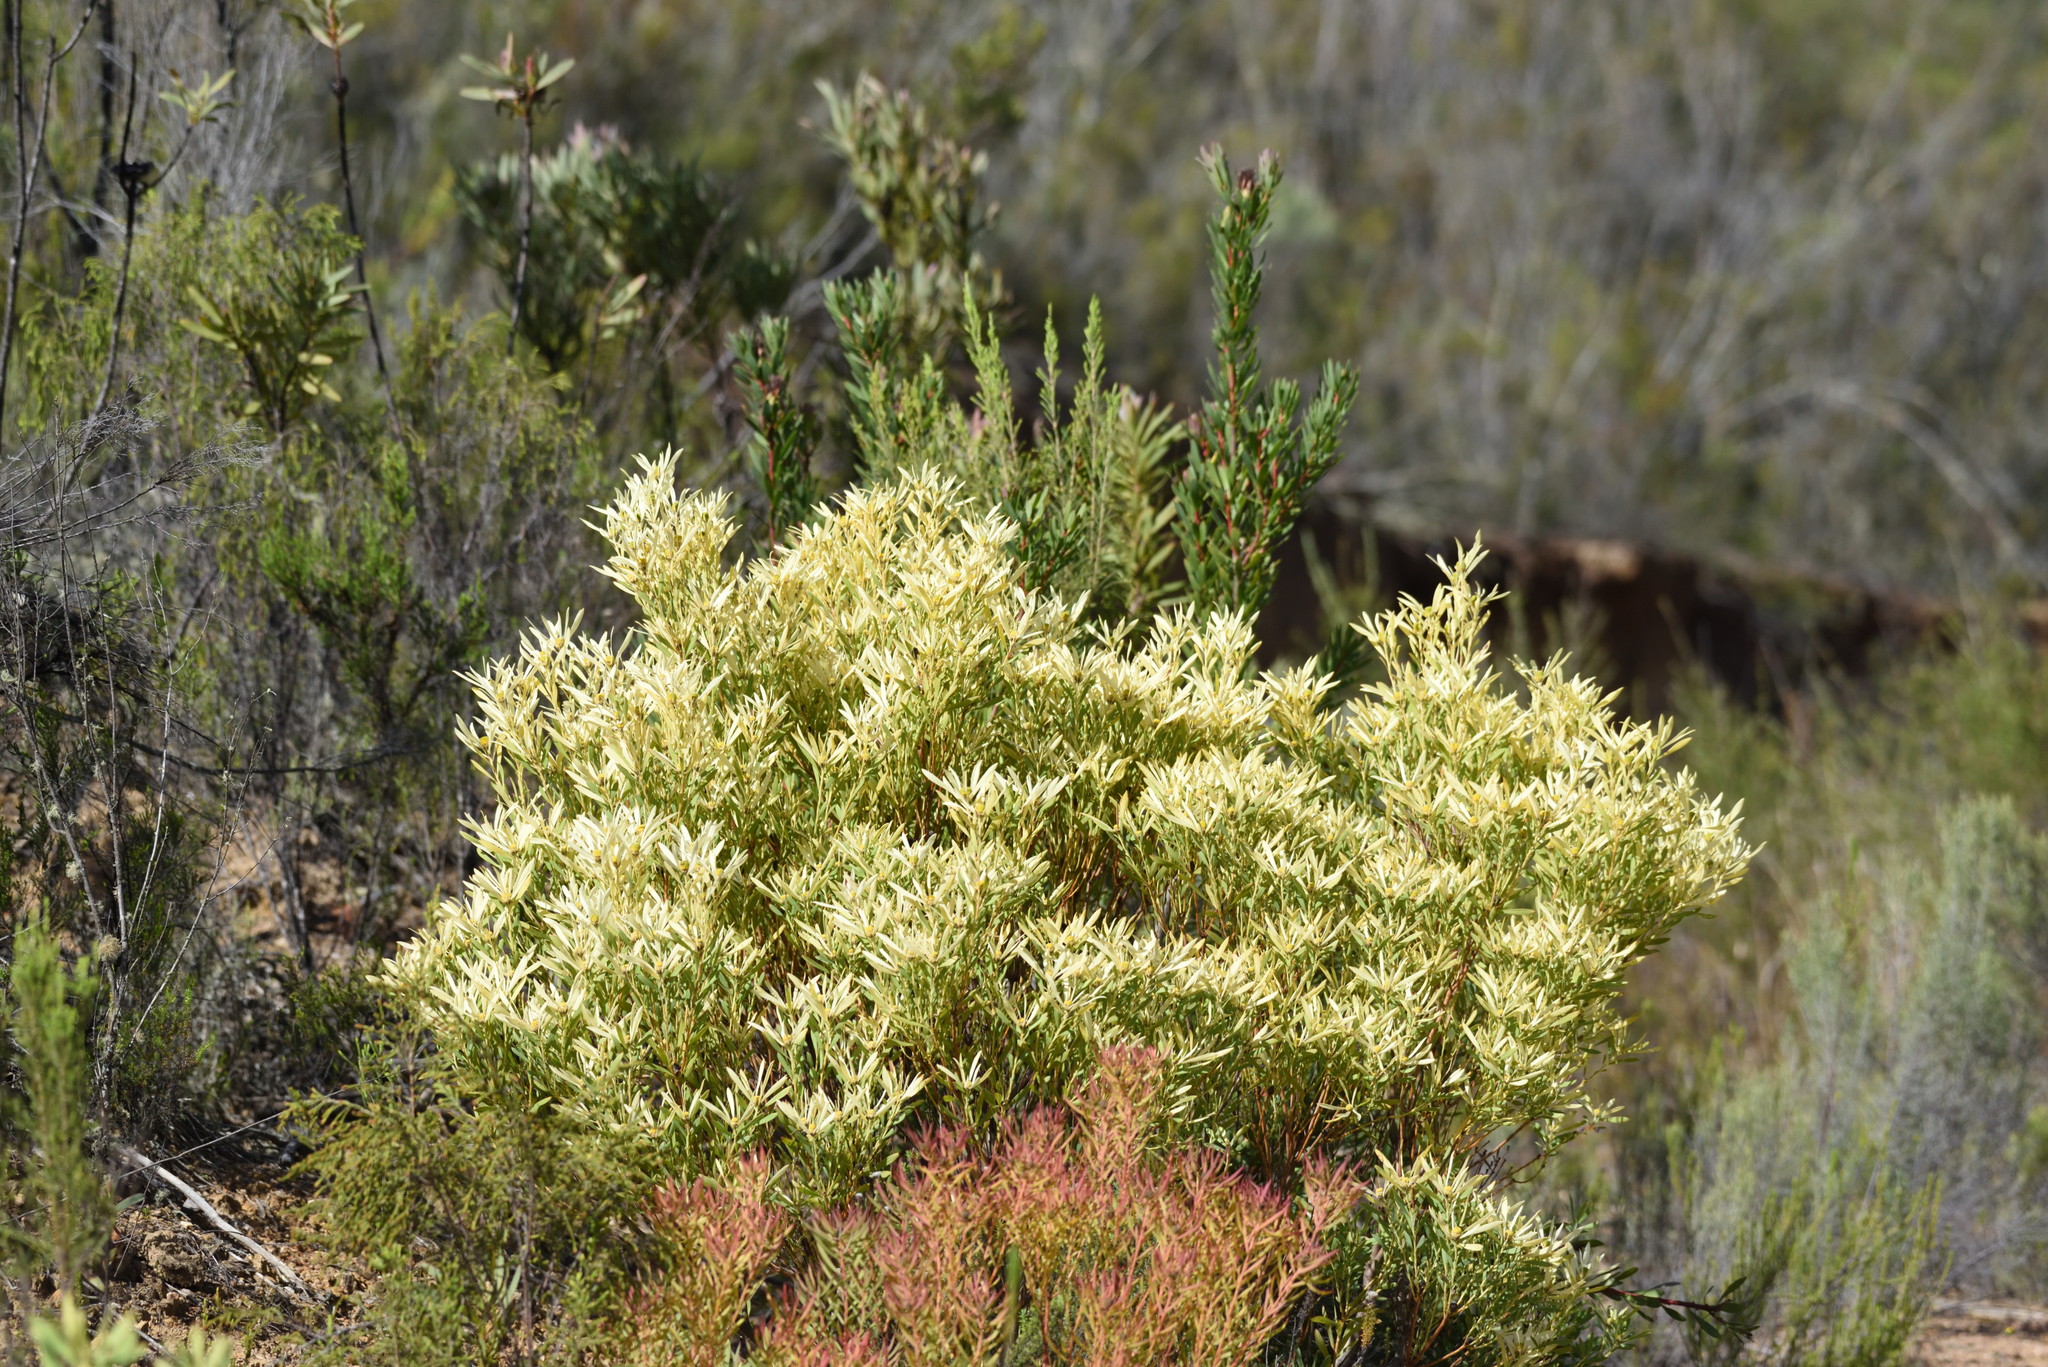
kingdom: Plantae
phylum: Tracheophyta
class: Magnoliopsida
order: Proteales
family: Proteaceae
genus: Leucadendron
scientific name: Leucadendron salignum
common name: Common sunshine conebush
